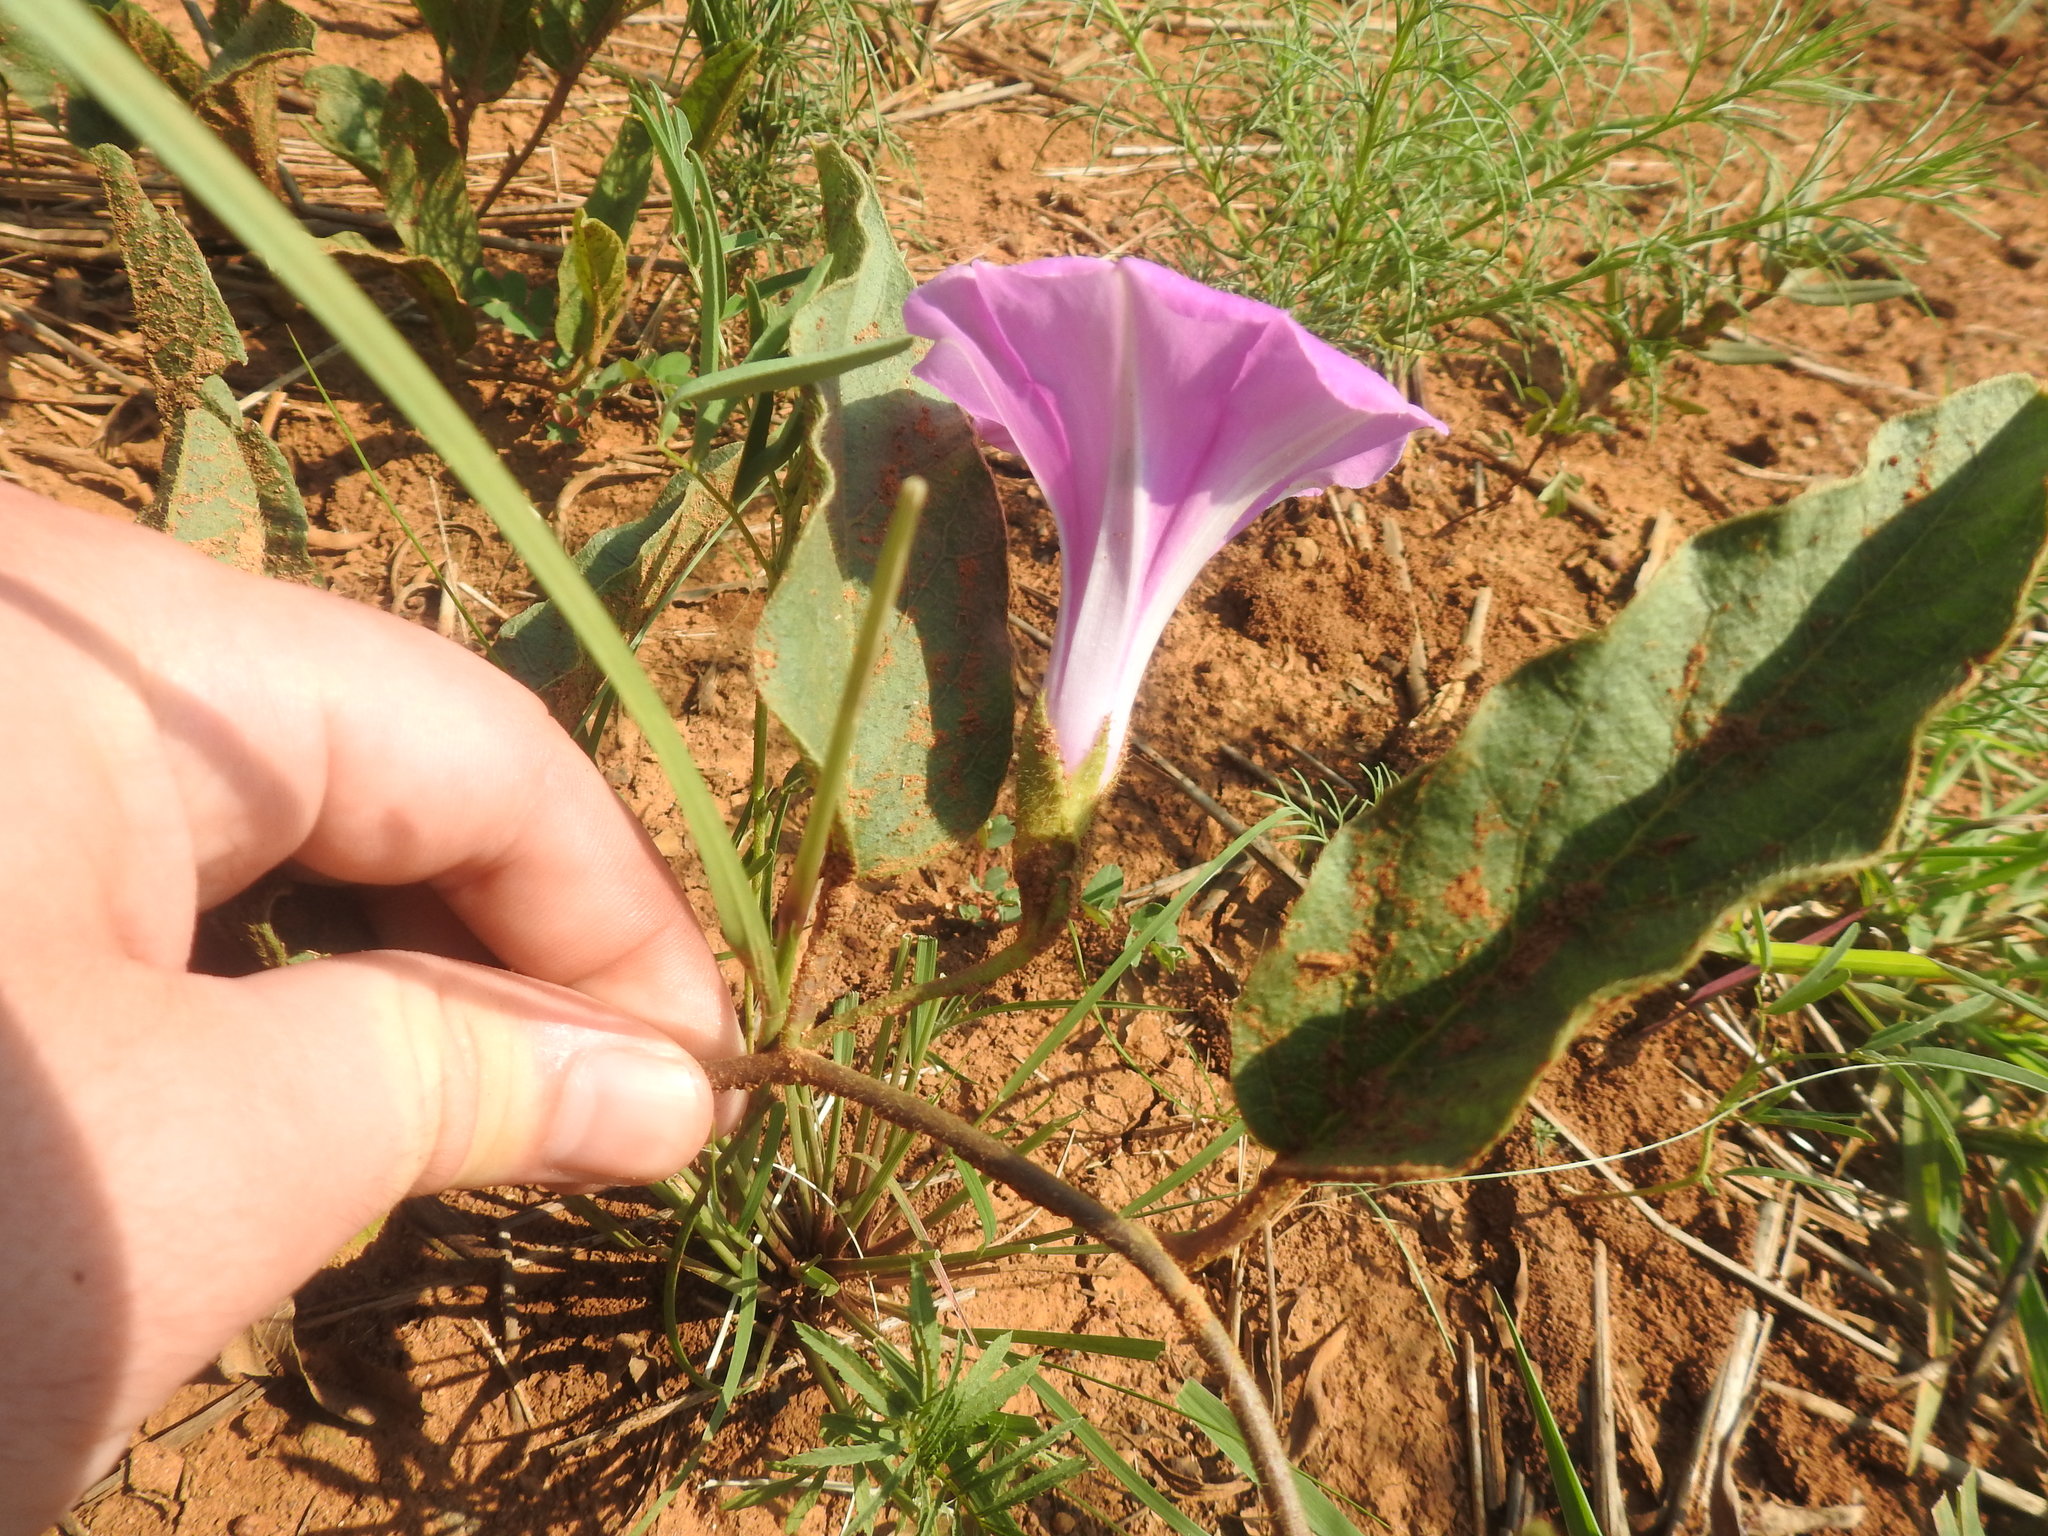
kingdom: Plantae
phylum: Tracheophyta
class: Magnoliopsida
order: Solanales
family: Convolvulaceae
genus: Ipomoea
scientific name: Ipomoea ommanneyi
